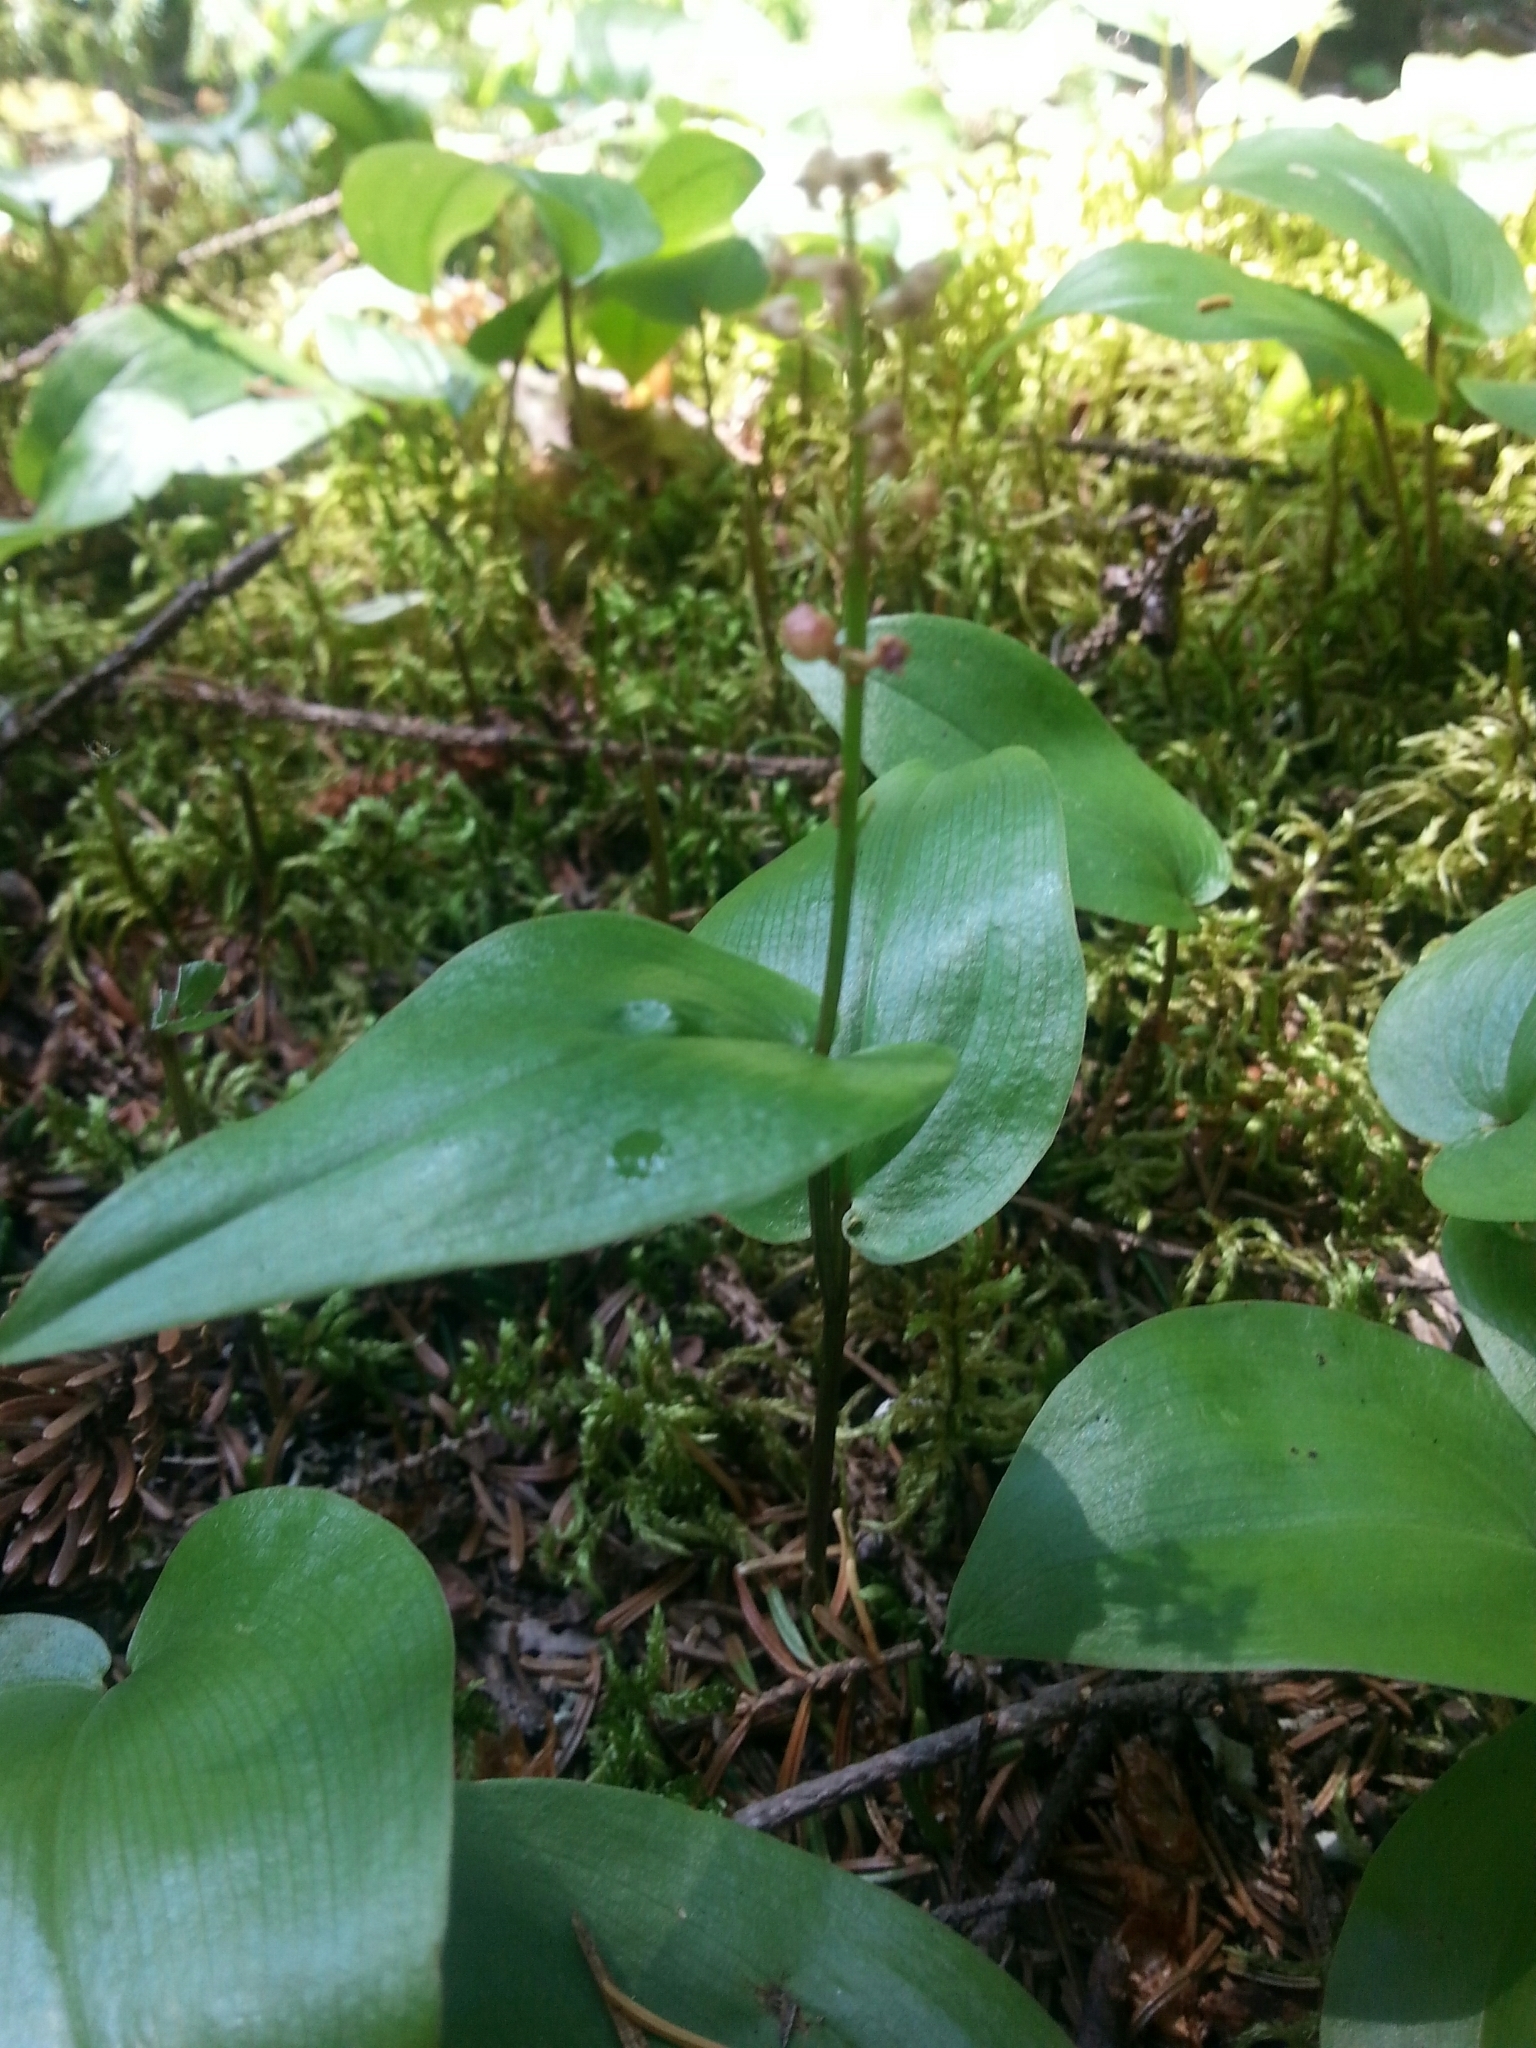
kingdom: Plantae
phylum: Tracheophyta
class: Liliopsida
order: Asparagales
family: Asparagaceae
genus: Maianthemum
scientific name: Maianthemum canadense
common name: False lily-of-the-valley
